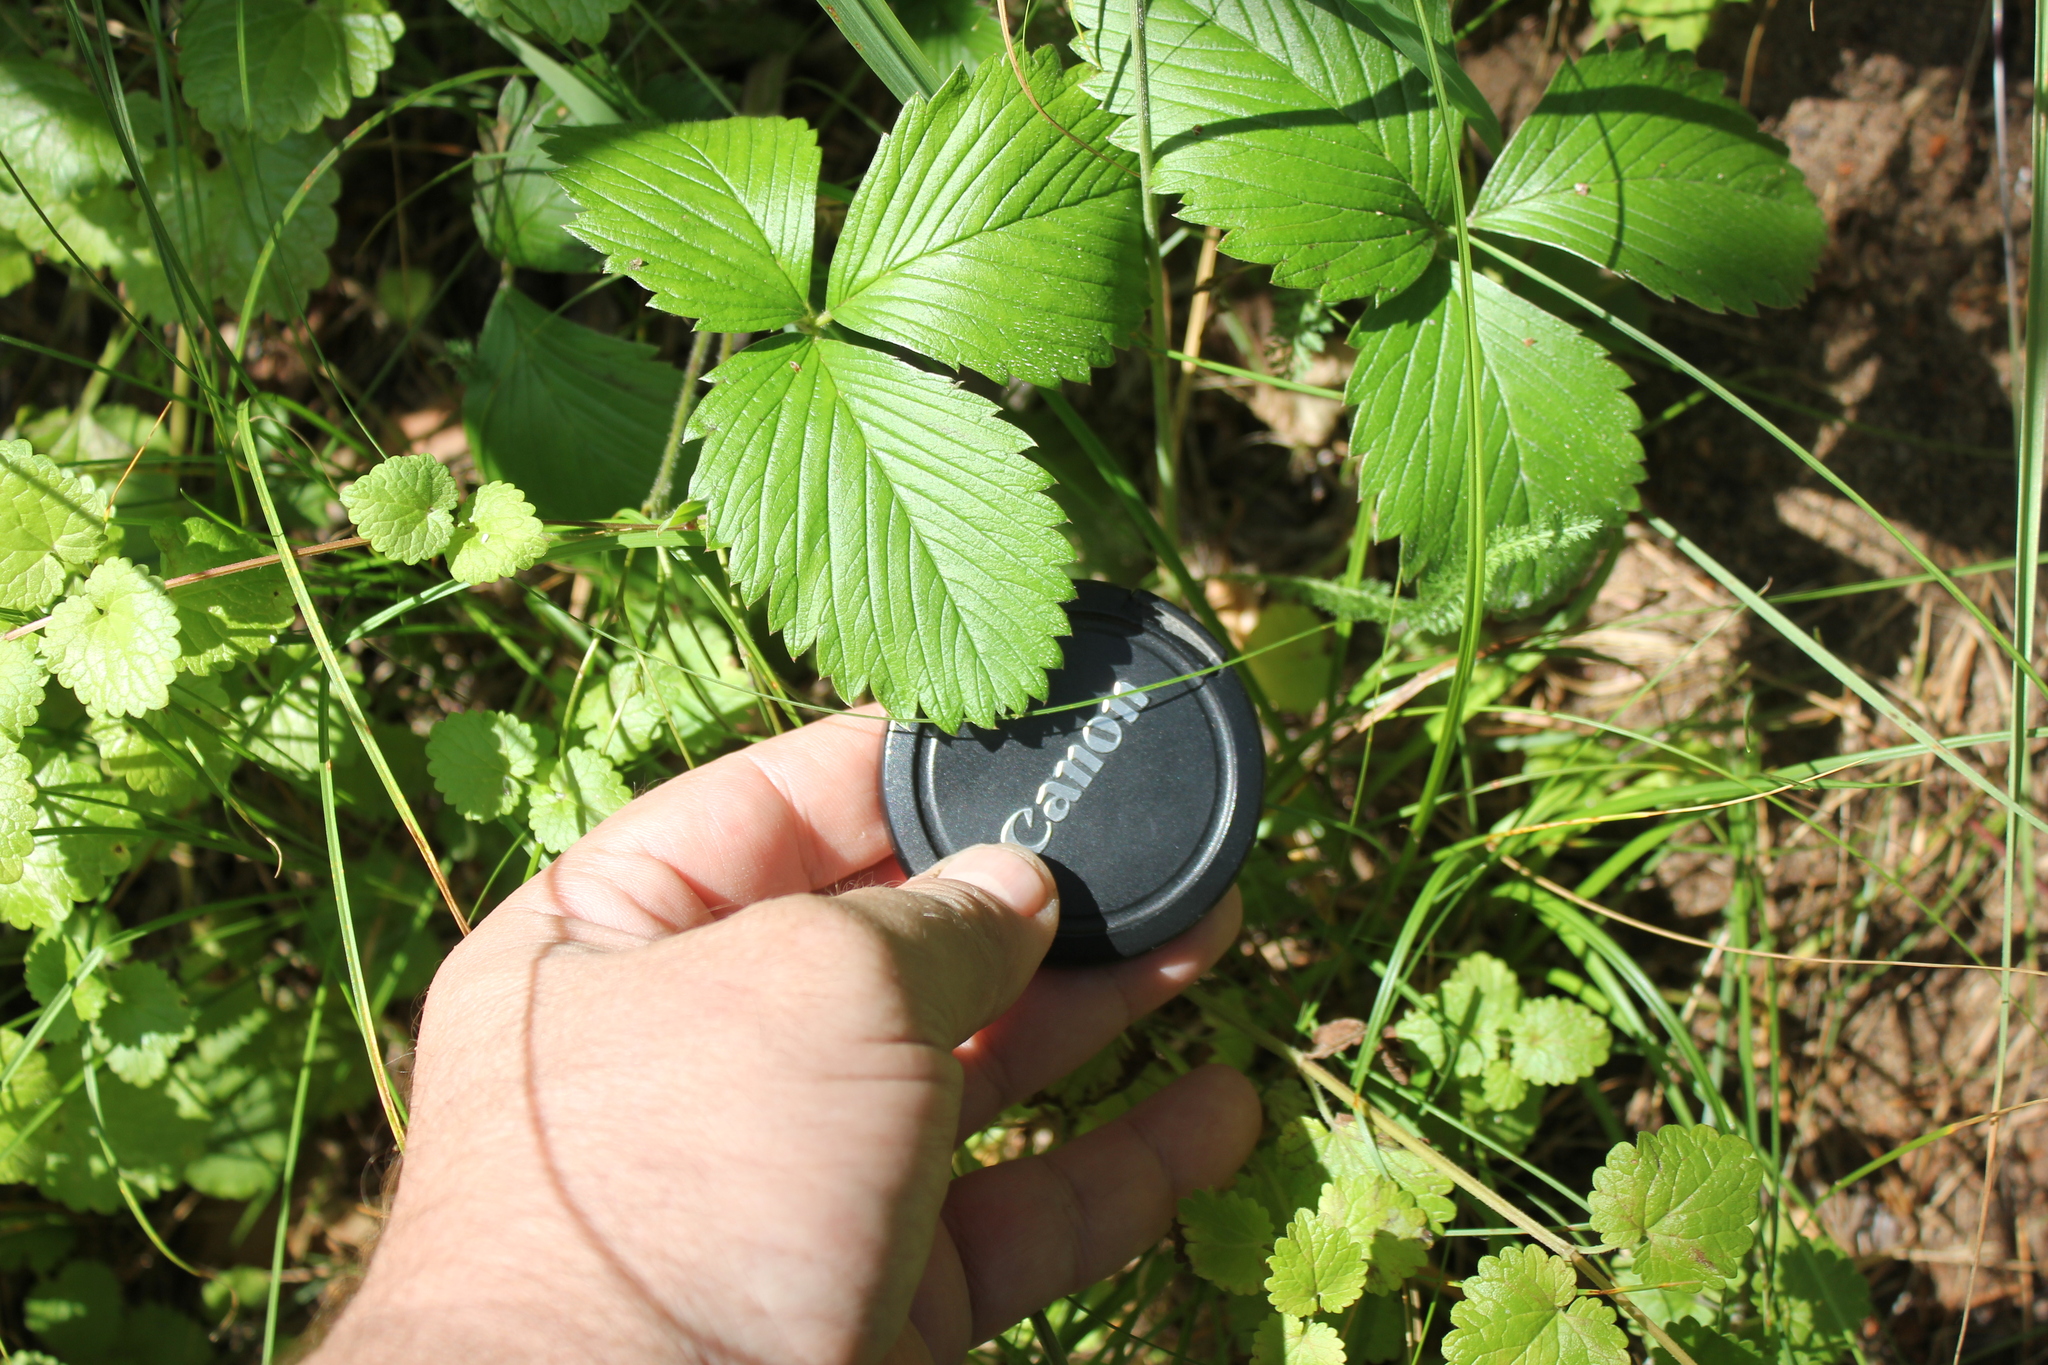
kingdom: Plantae
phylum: Tracheophyta
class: Magnoliopsida
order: Rosales
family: Rosaceae
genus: Fragaria
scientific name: Fragaria viridis
